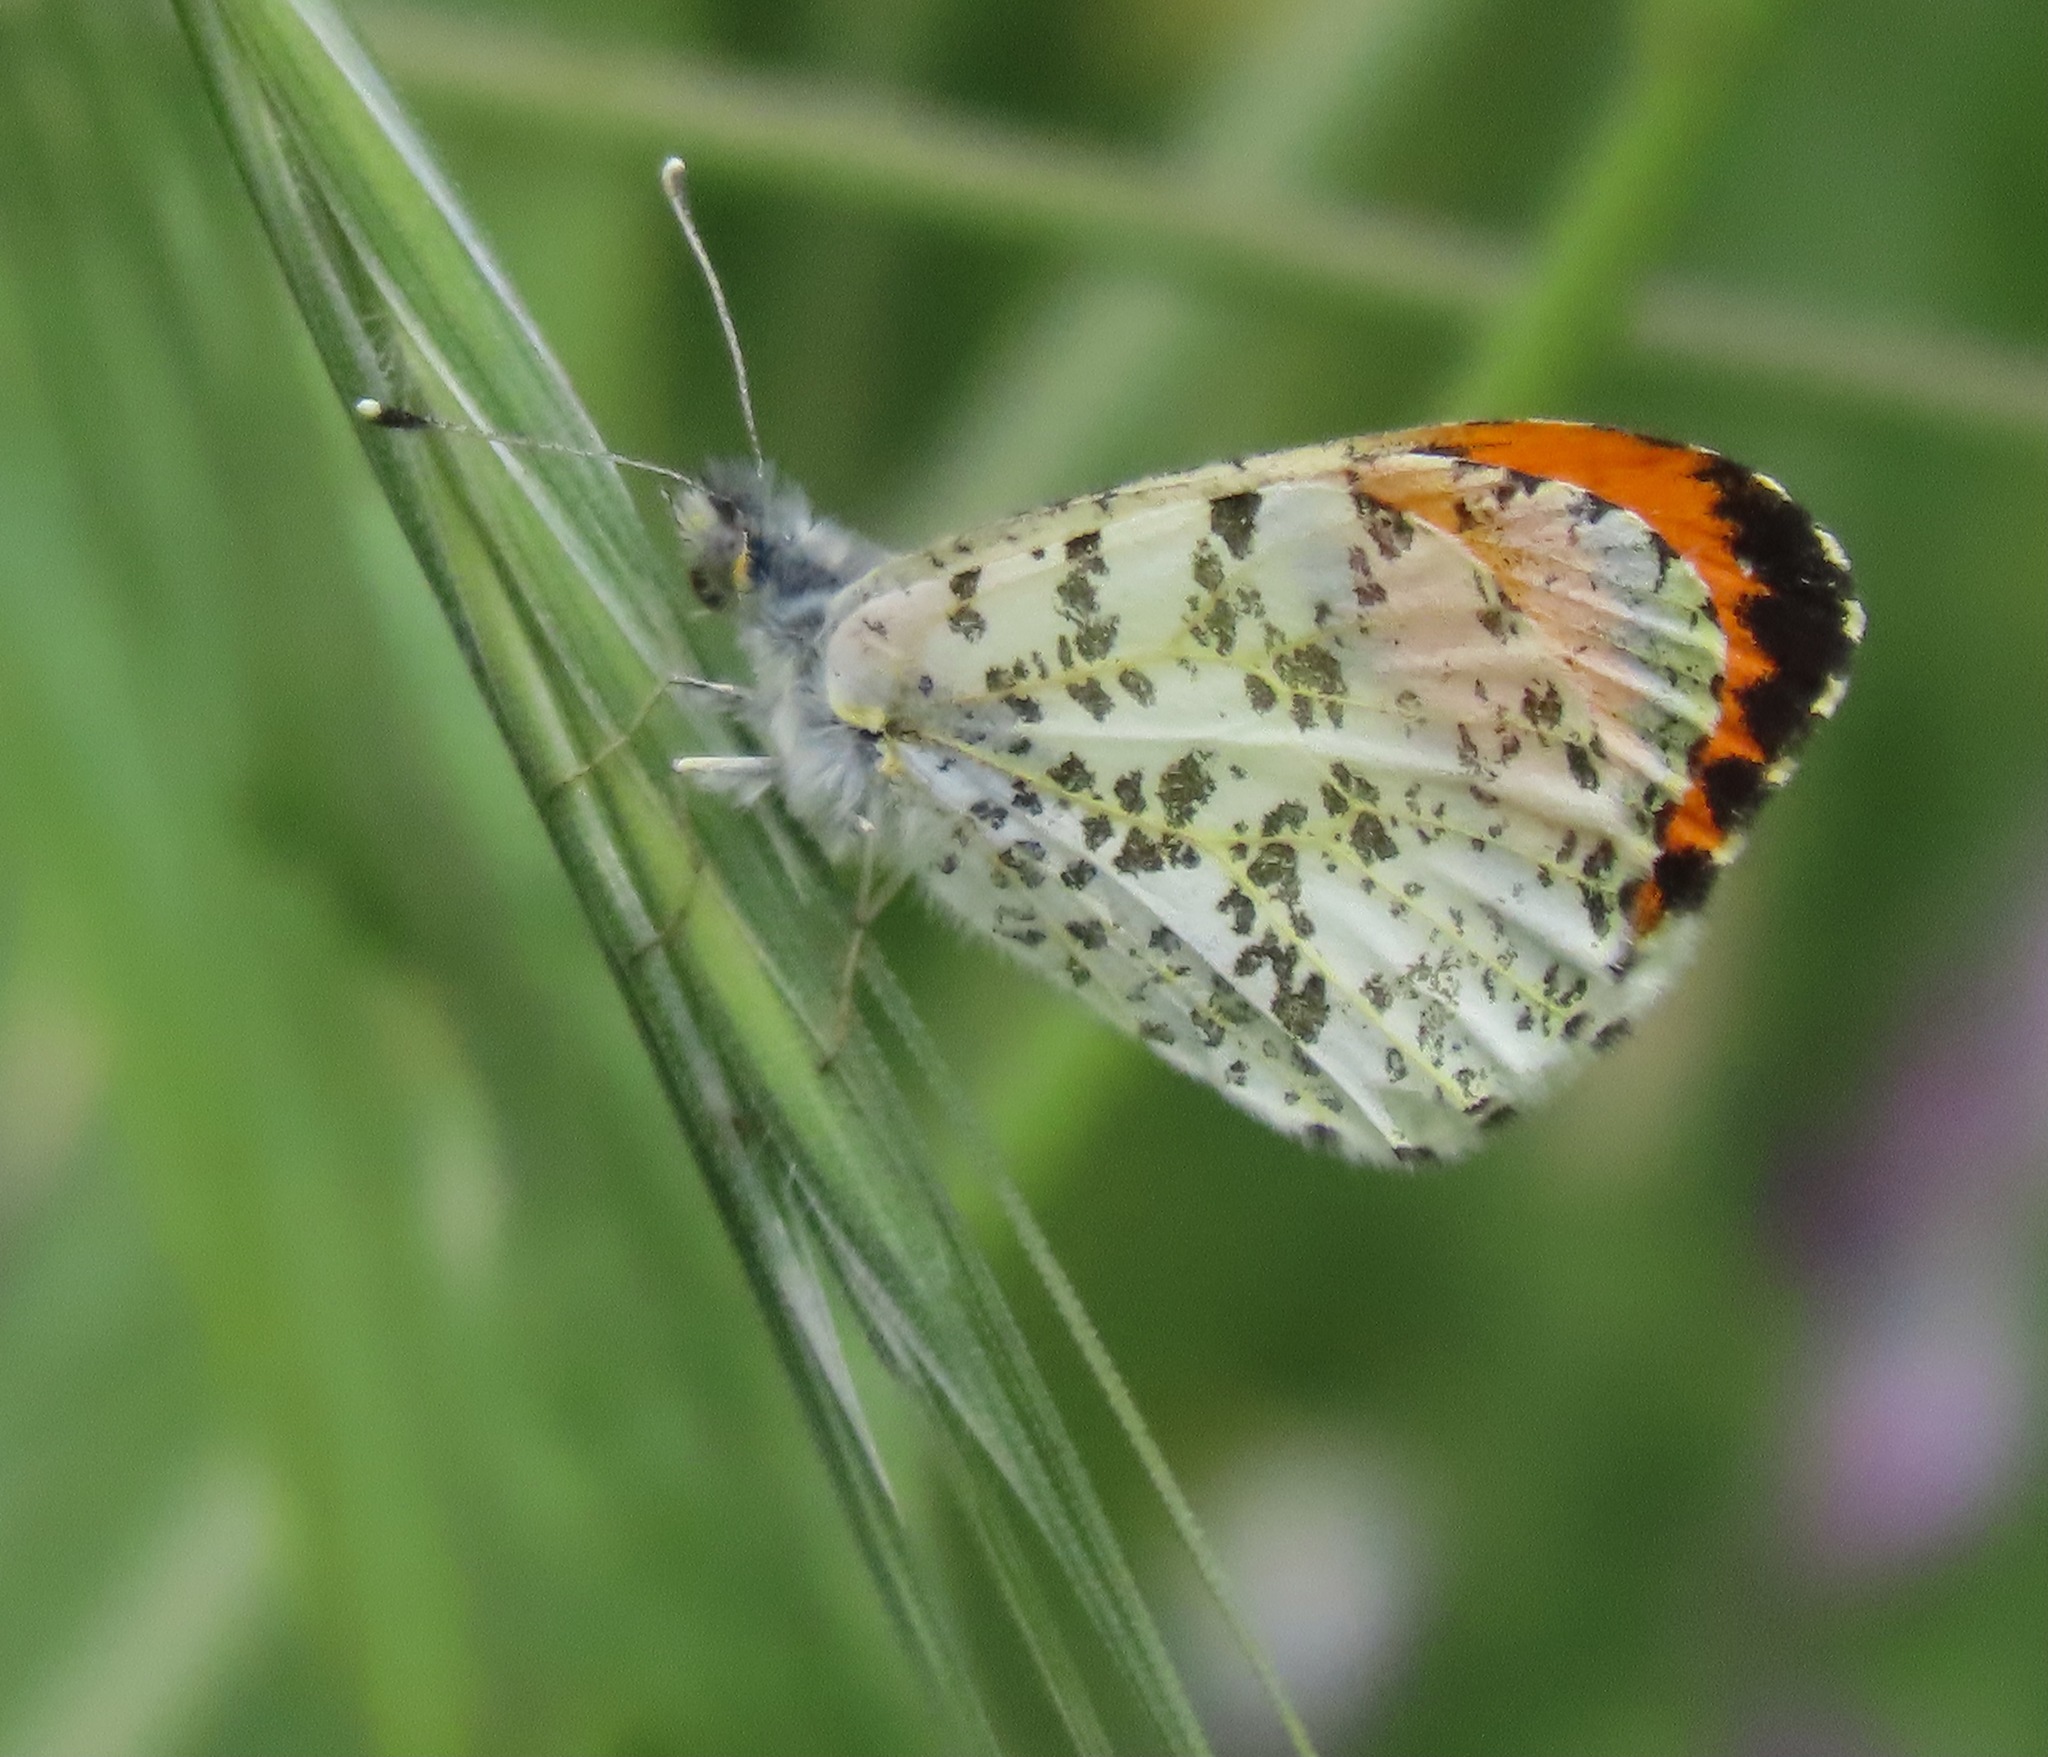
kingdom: Animalia
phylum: Arthropoda
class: Insecta
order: Lepidoptera
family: Pieridae
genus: Anthocharis
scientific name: Anthocharis sara
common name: Sara's orangetip
